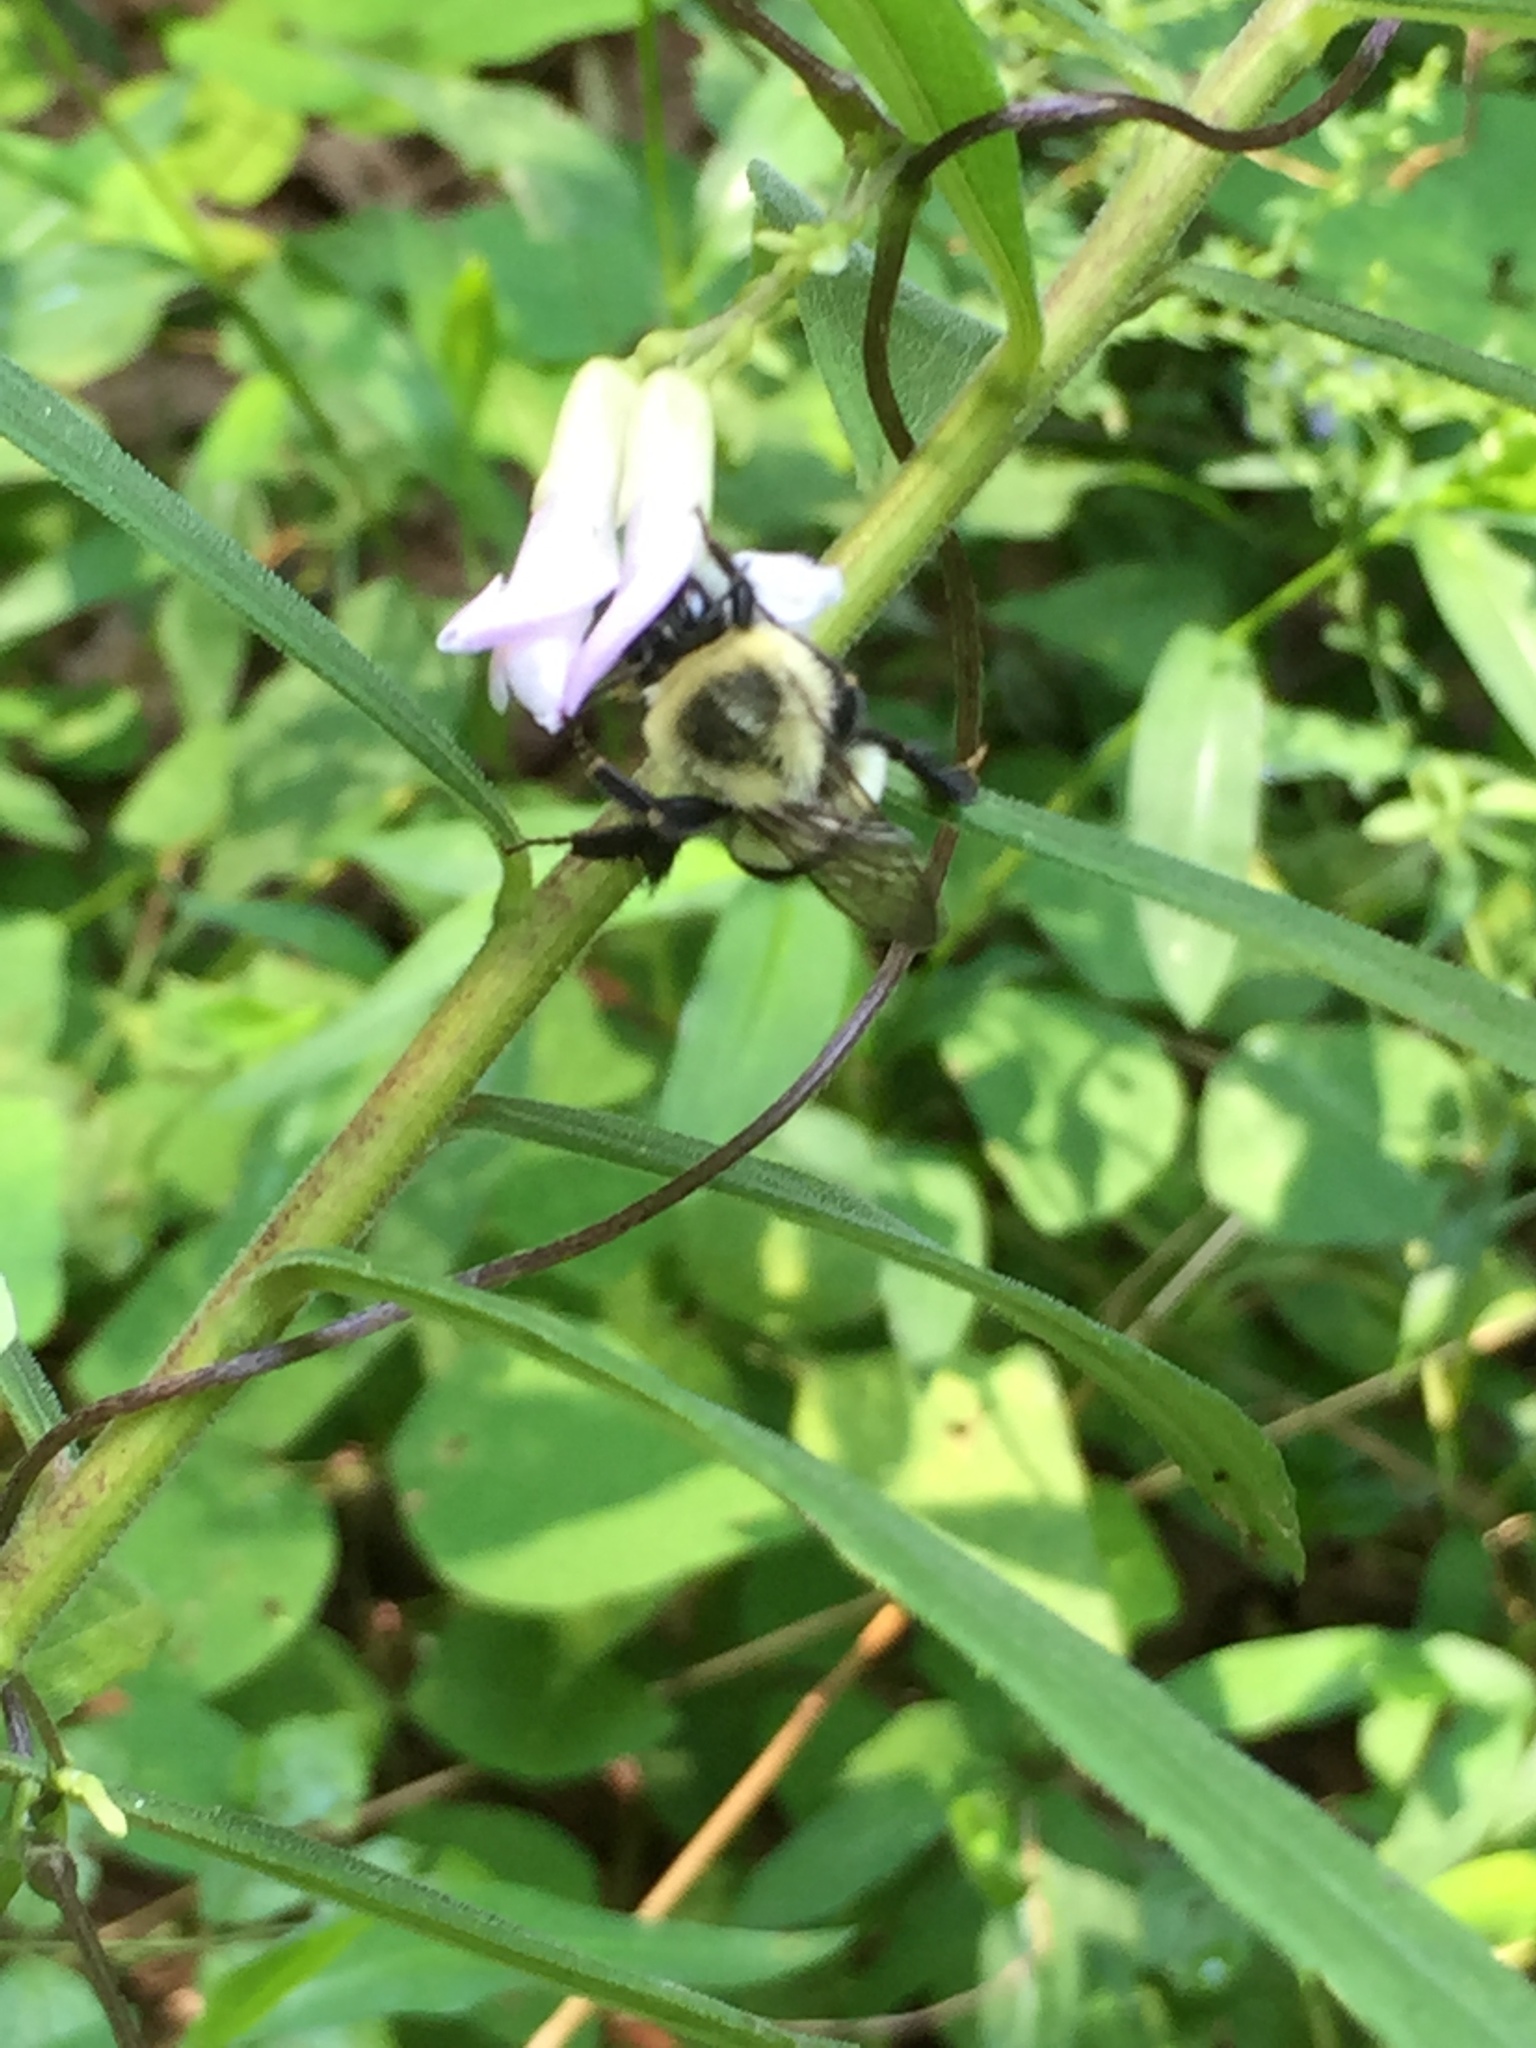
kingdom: Animalia
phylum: Arthropoda
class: Insecta
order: Hymenoptera
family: Apidae
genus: Bombus
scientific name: Bombus impatiens
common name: Common eastern bumble bee
